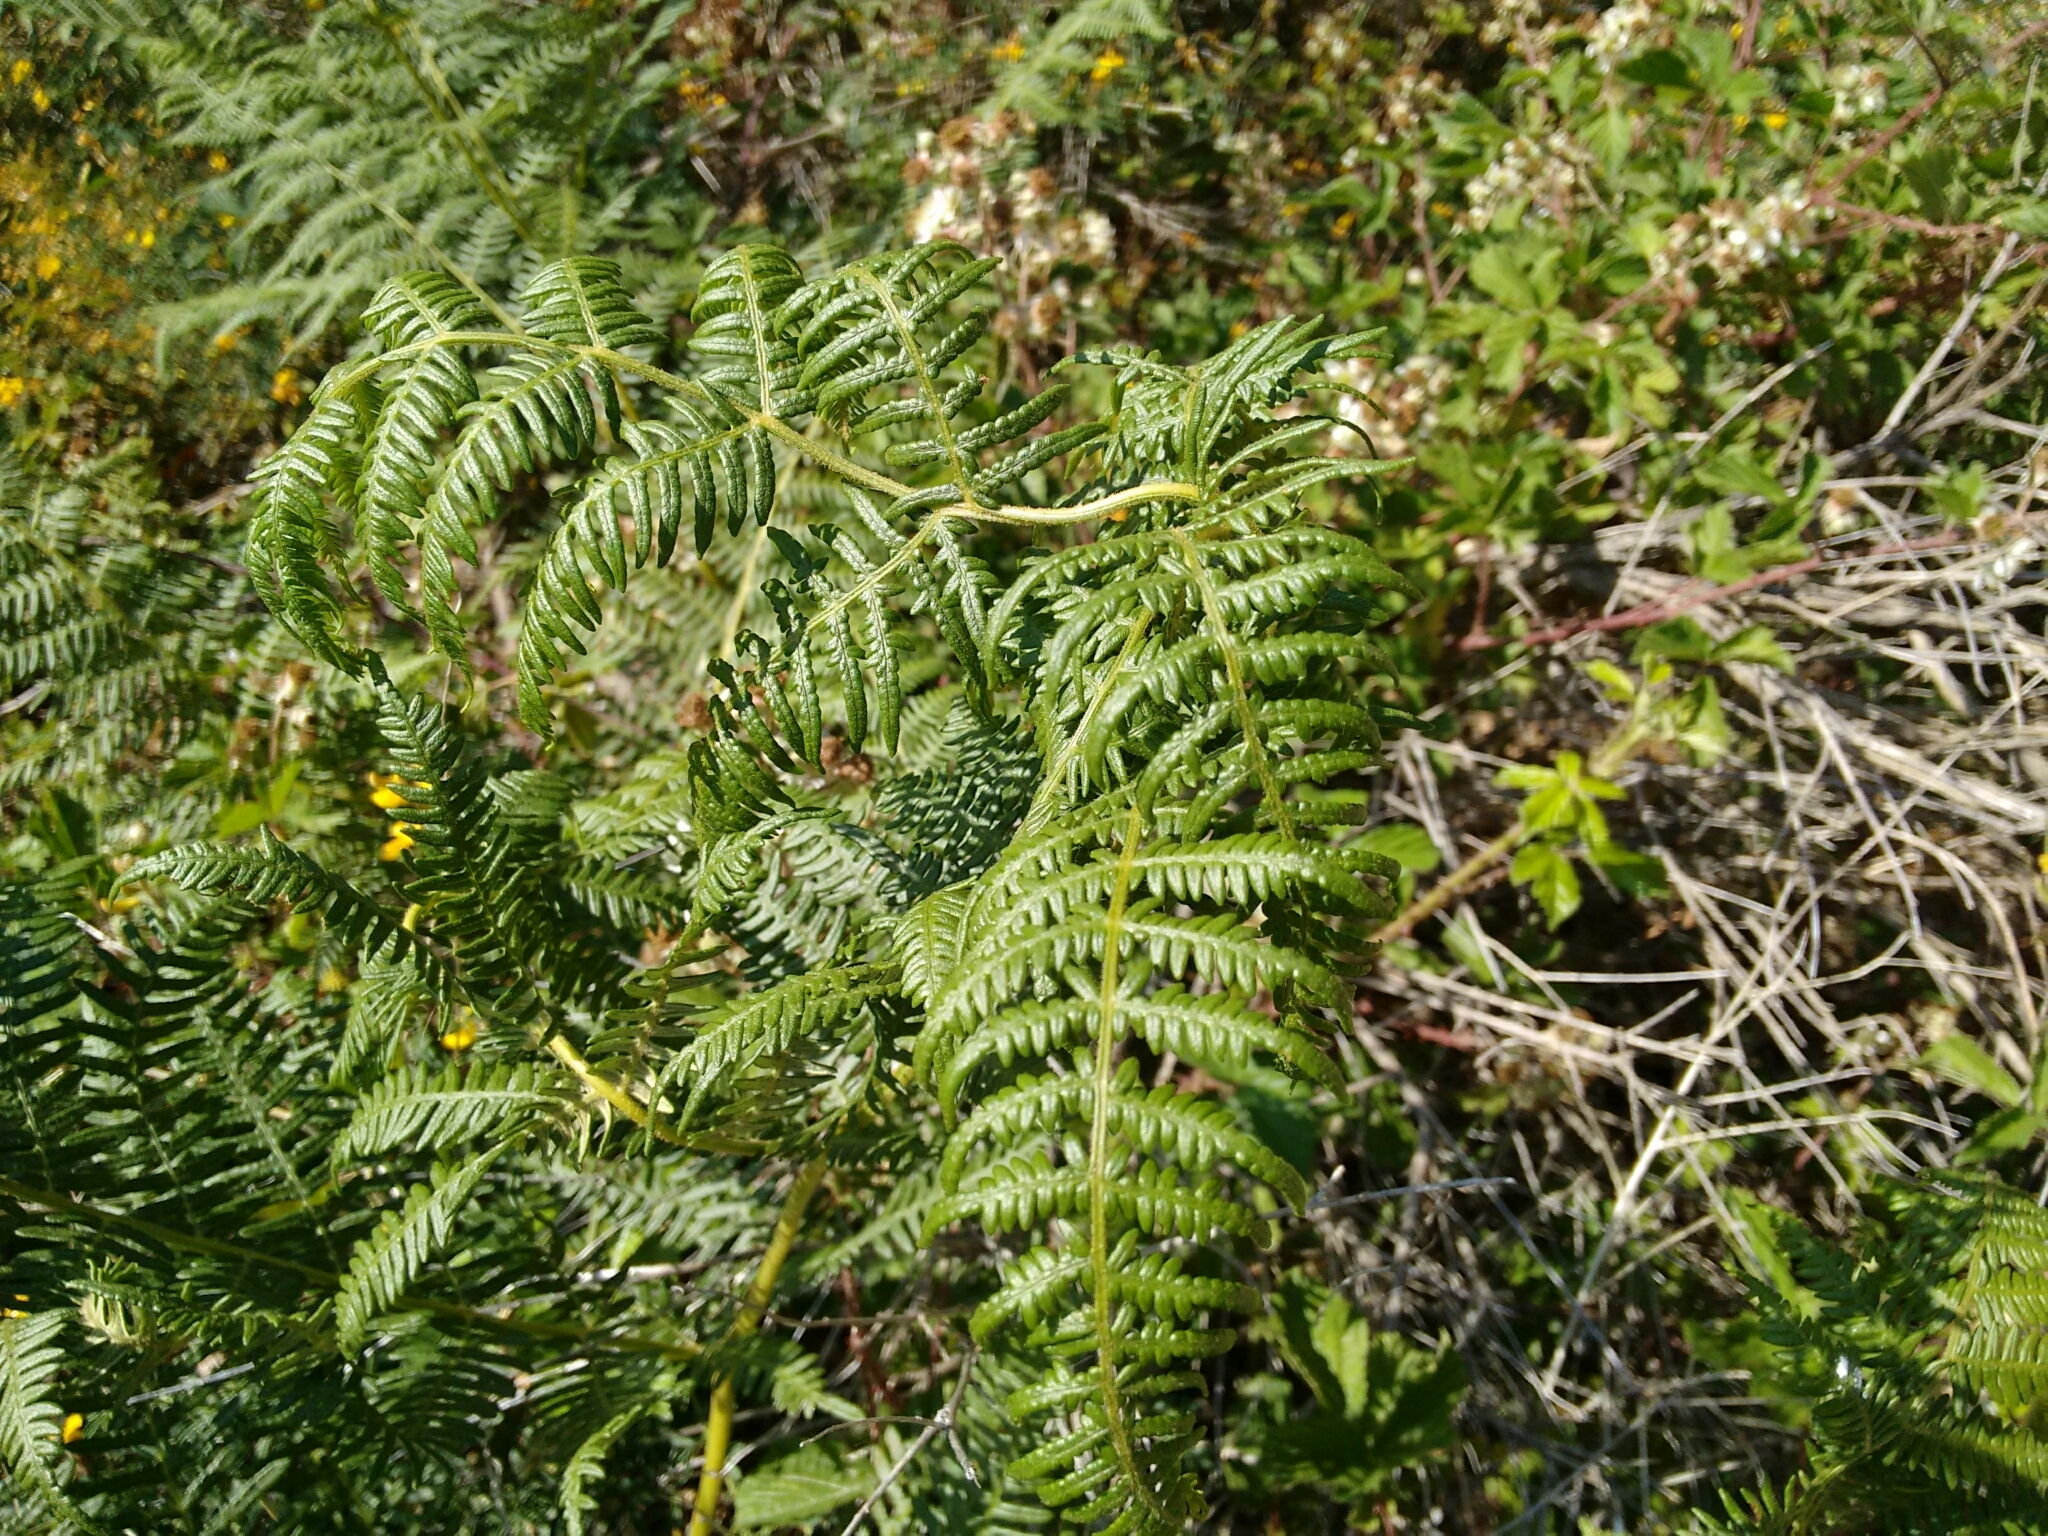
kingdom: Plantae
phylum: Tracheophyta
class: Polypodiopsida
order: Polypodiales
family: Dennstaedtiaceae
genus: Pteridium
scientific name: Pteridium aquilinum
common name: Bracken
